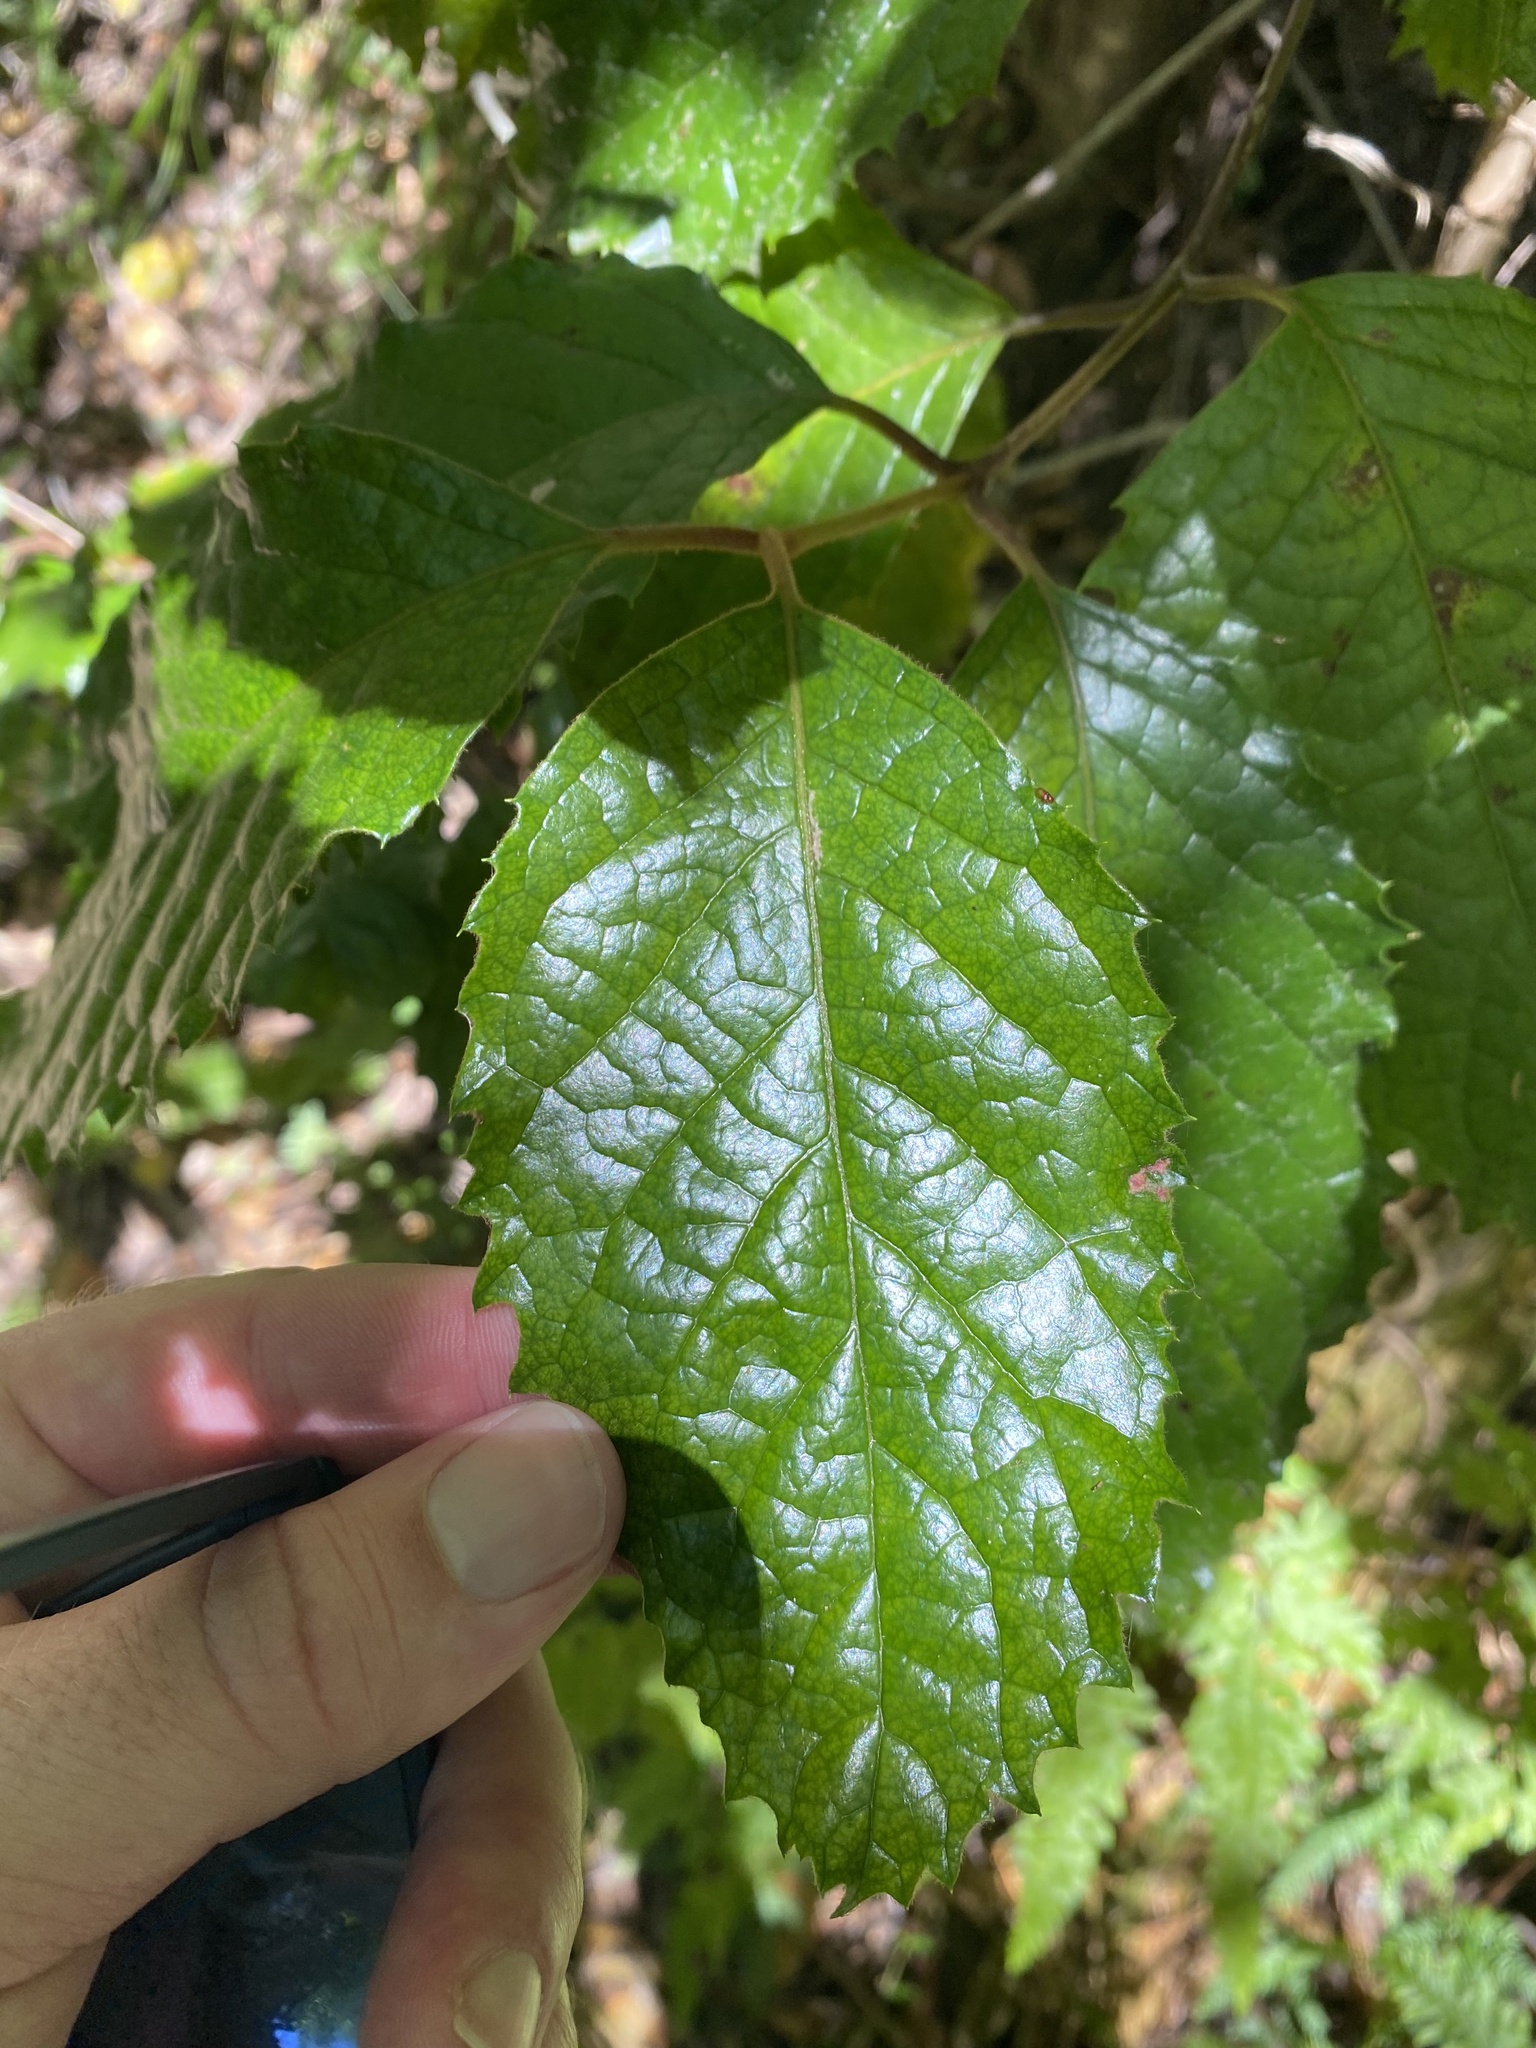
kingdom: Plantae
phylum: Tracheophyta
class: Magnoliopsida
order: Cornales
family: Curtisiaceae
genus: Curtisia
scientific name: Curtisia dentata
